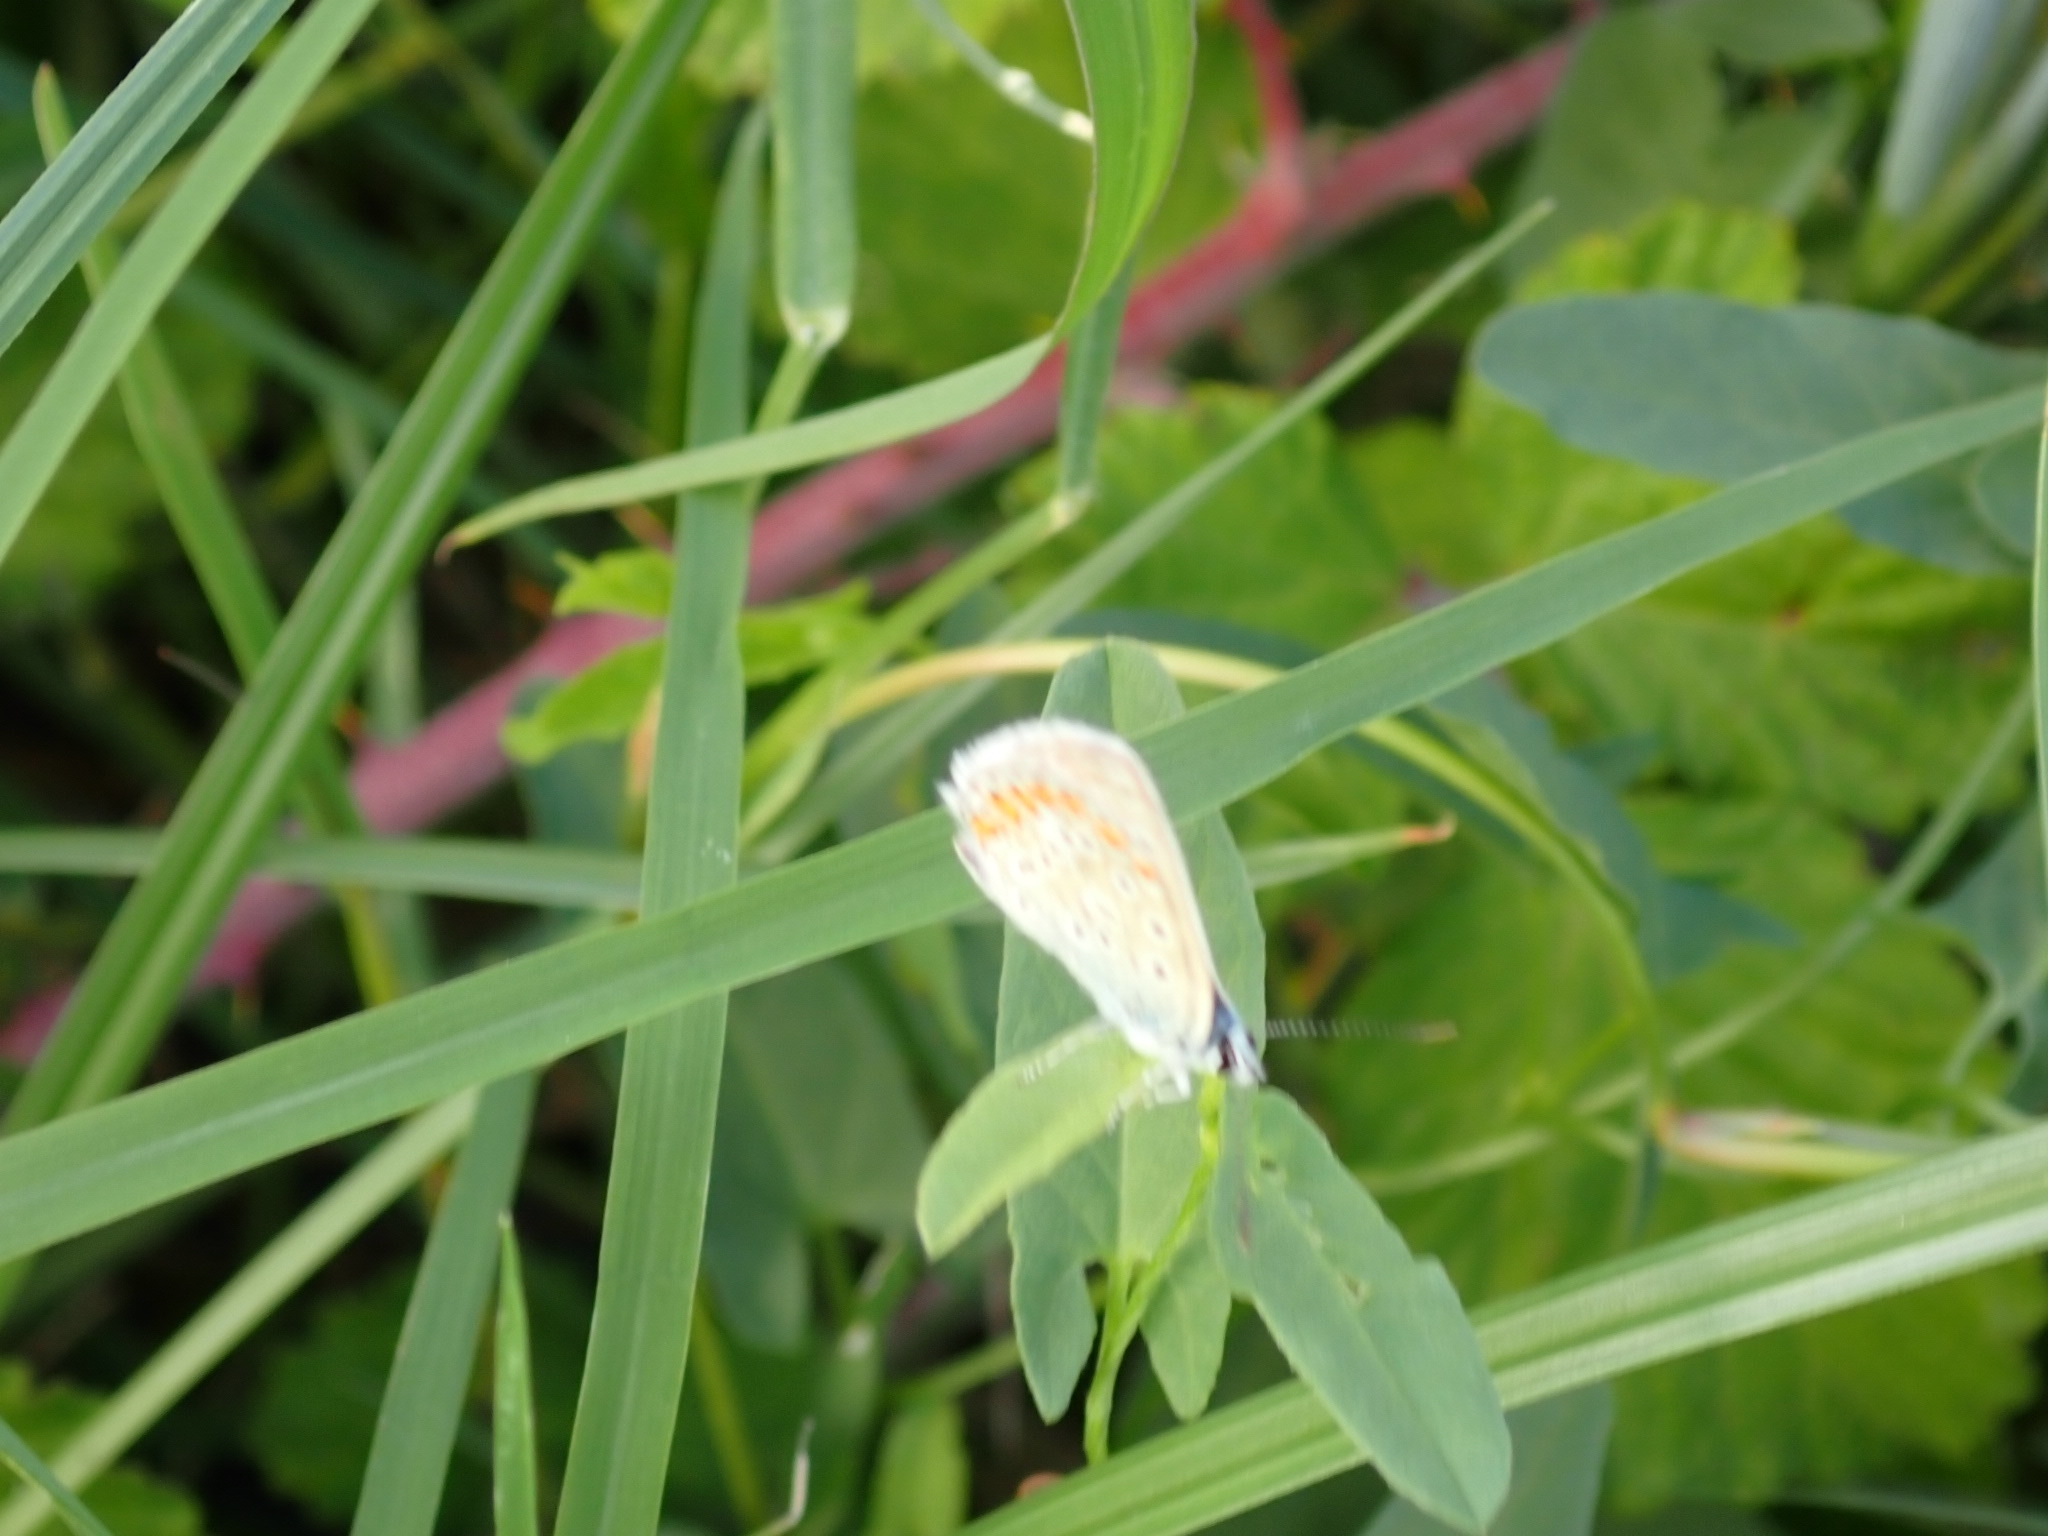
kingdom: Animalia
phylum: Arthropoda
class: Insecta
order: Lepidoptera
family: Lycaenidae
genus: Polyommatus
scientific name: Polyommatus icarus
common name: Common blue
